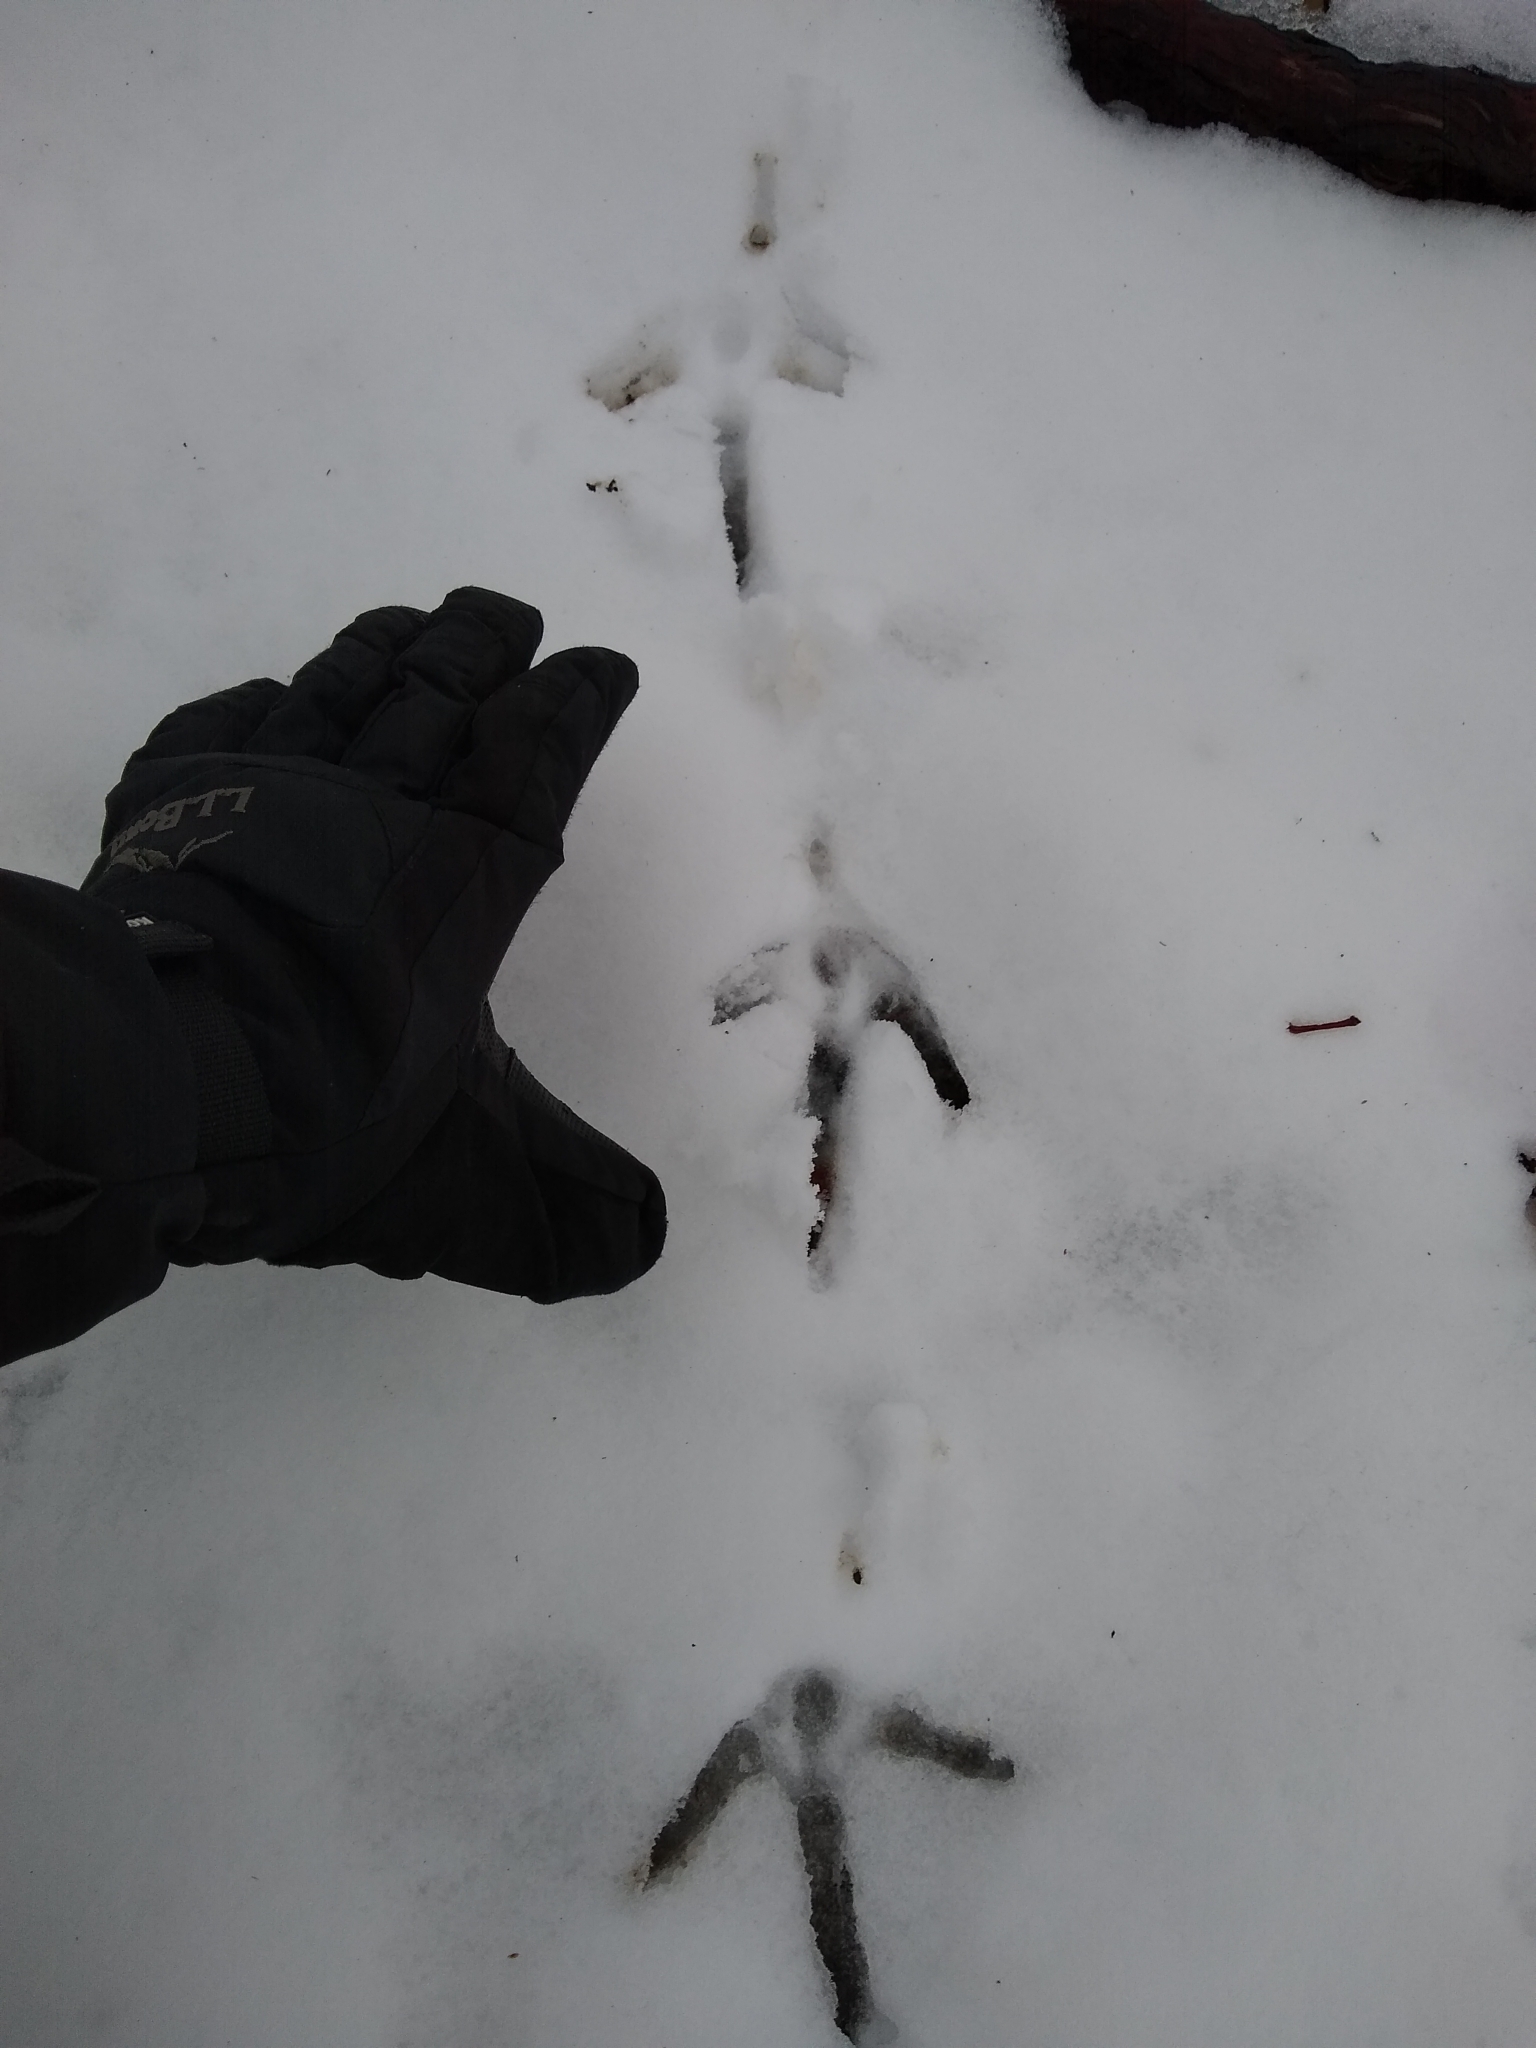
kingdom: Animalia
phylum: Chordata
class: Aves
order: Galliformes
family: Phasianidae
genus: Meleagris
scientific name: Meleagris gallopavo
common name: Wild turkey
